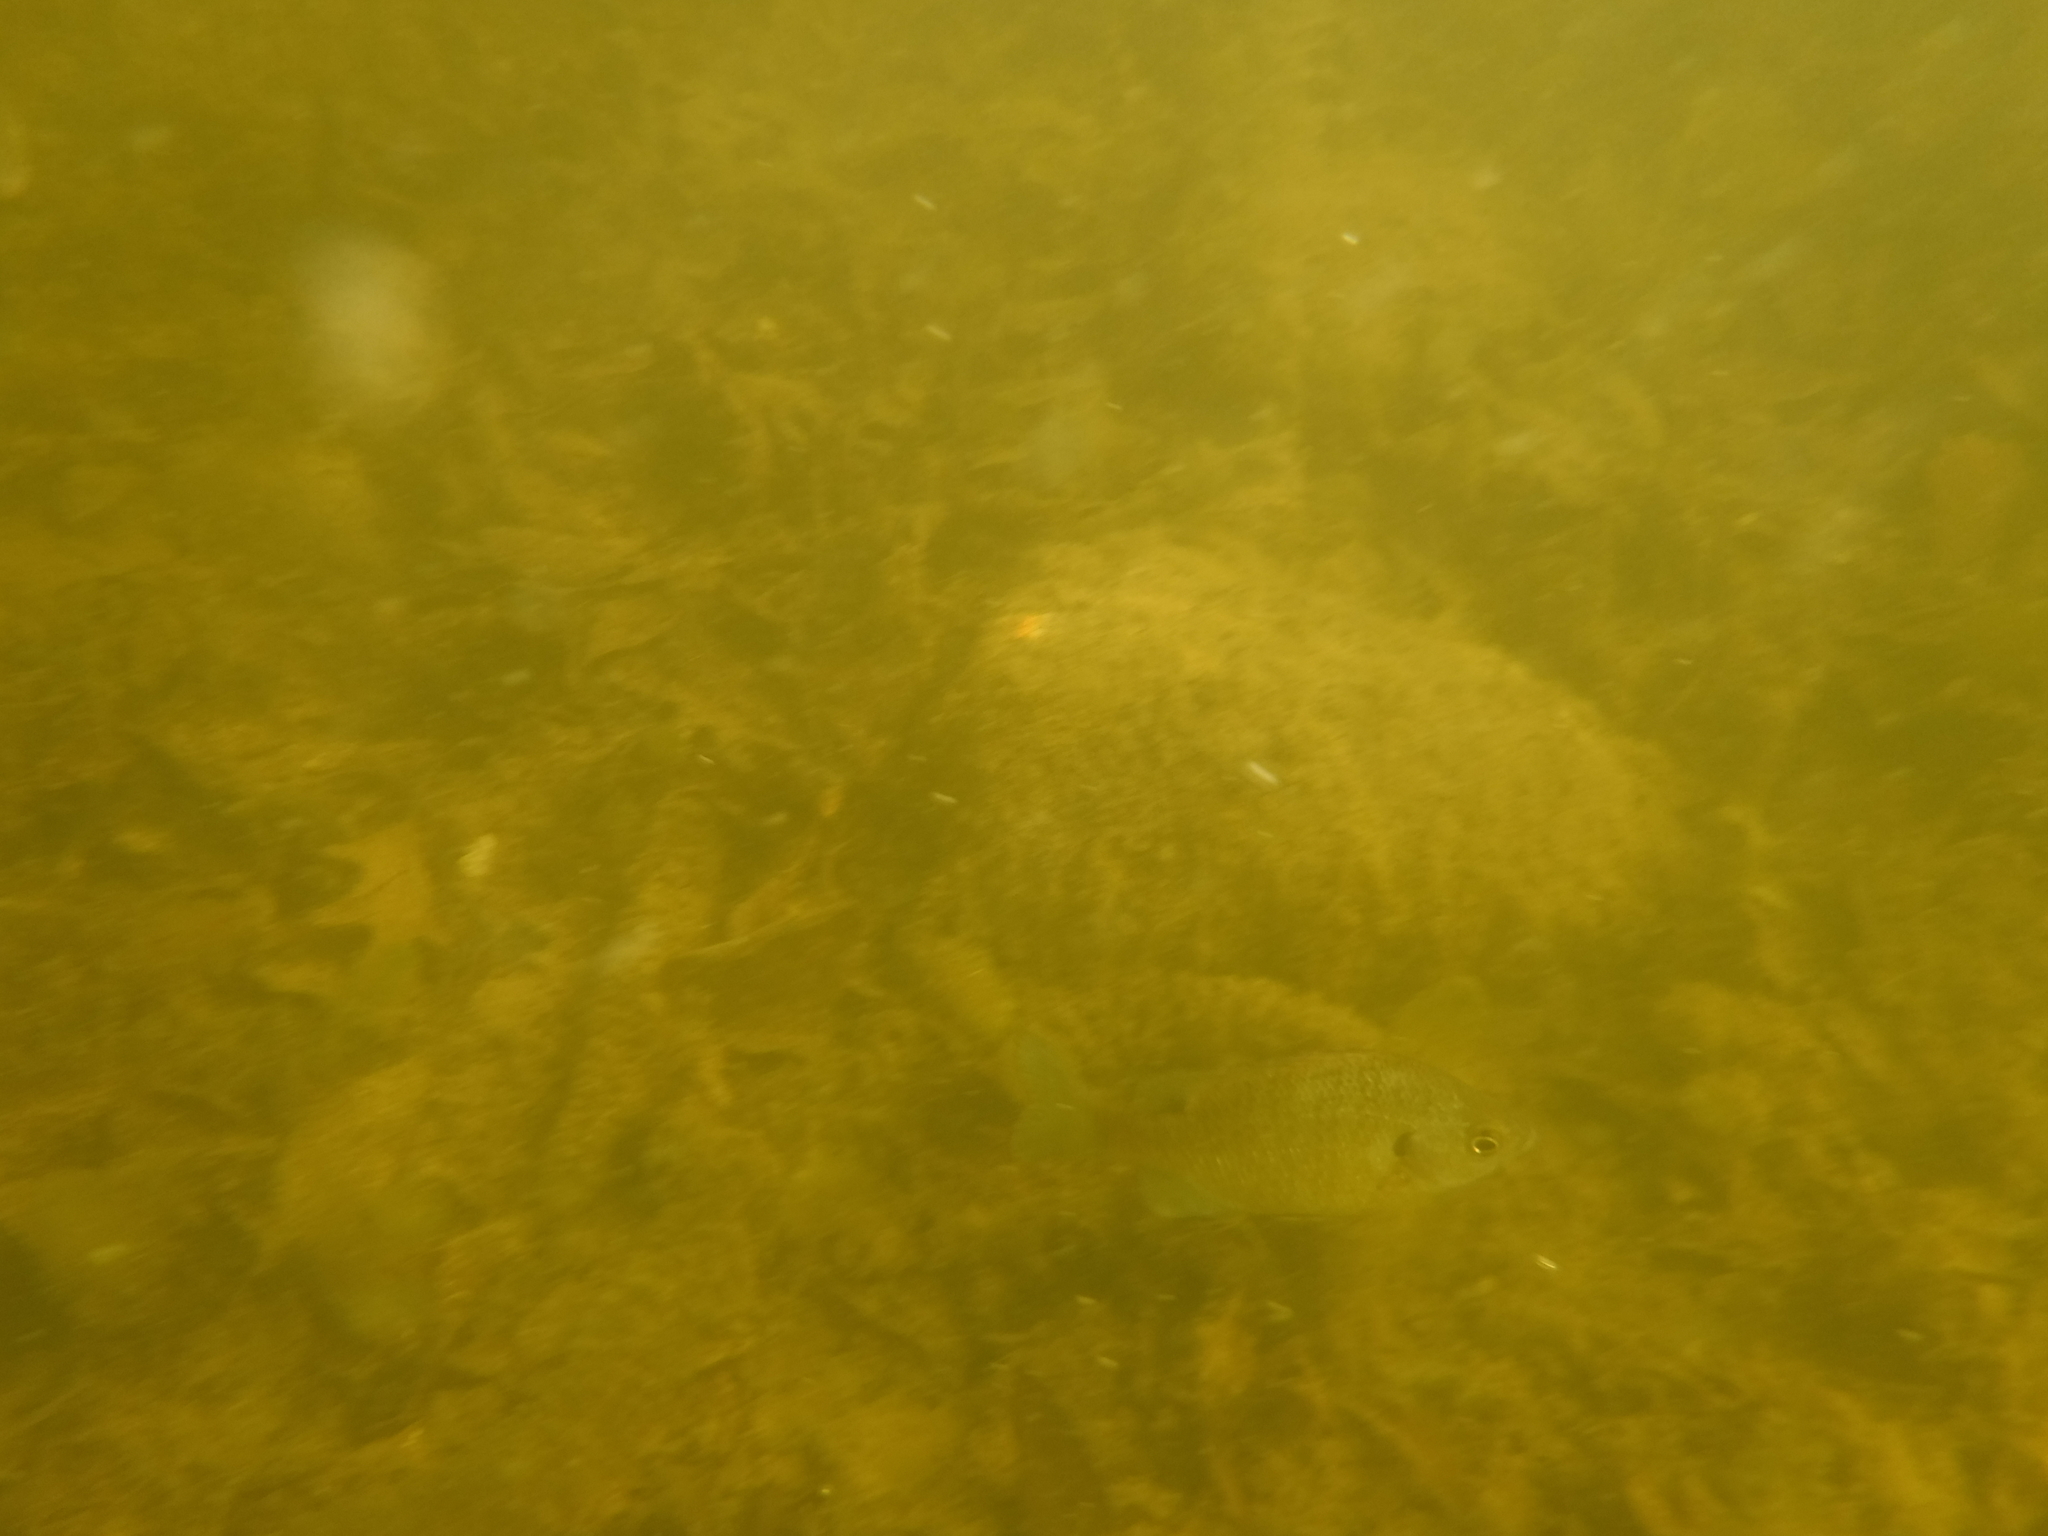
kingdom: Animalia
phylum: Chordata
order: Perciformes
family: Centrarchidae
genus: Lepomis
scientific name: Lepomis macrochirus
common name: Bluegill
